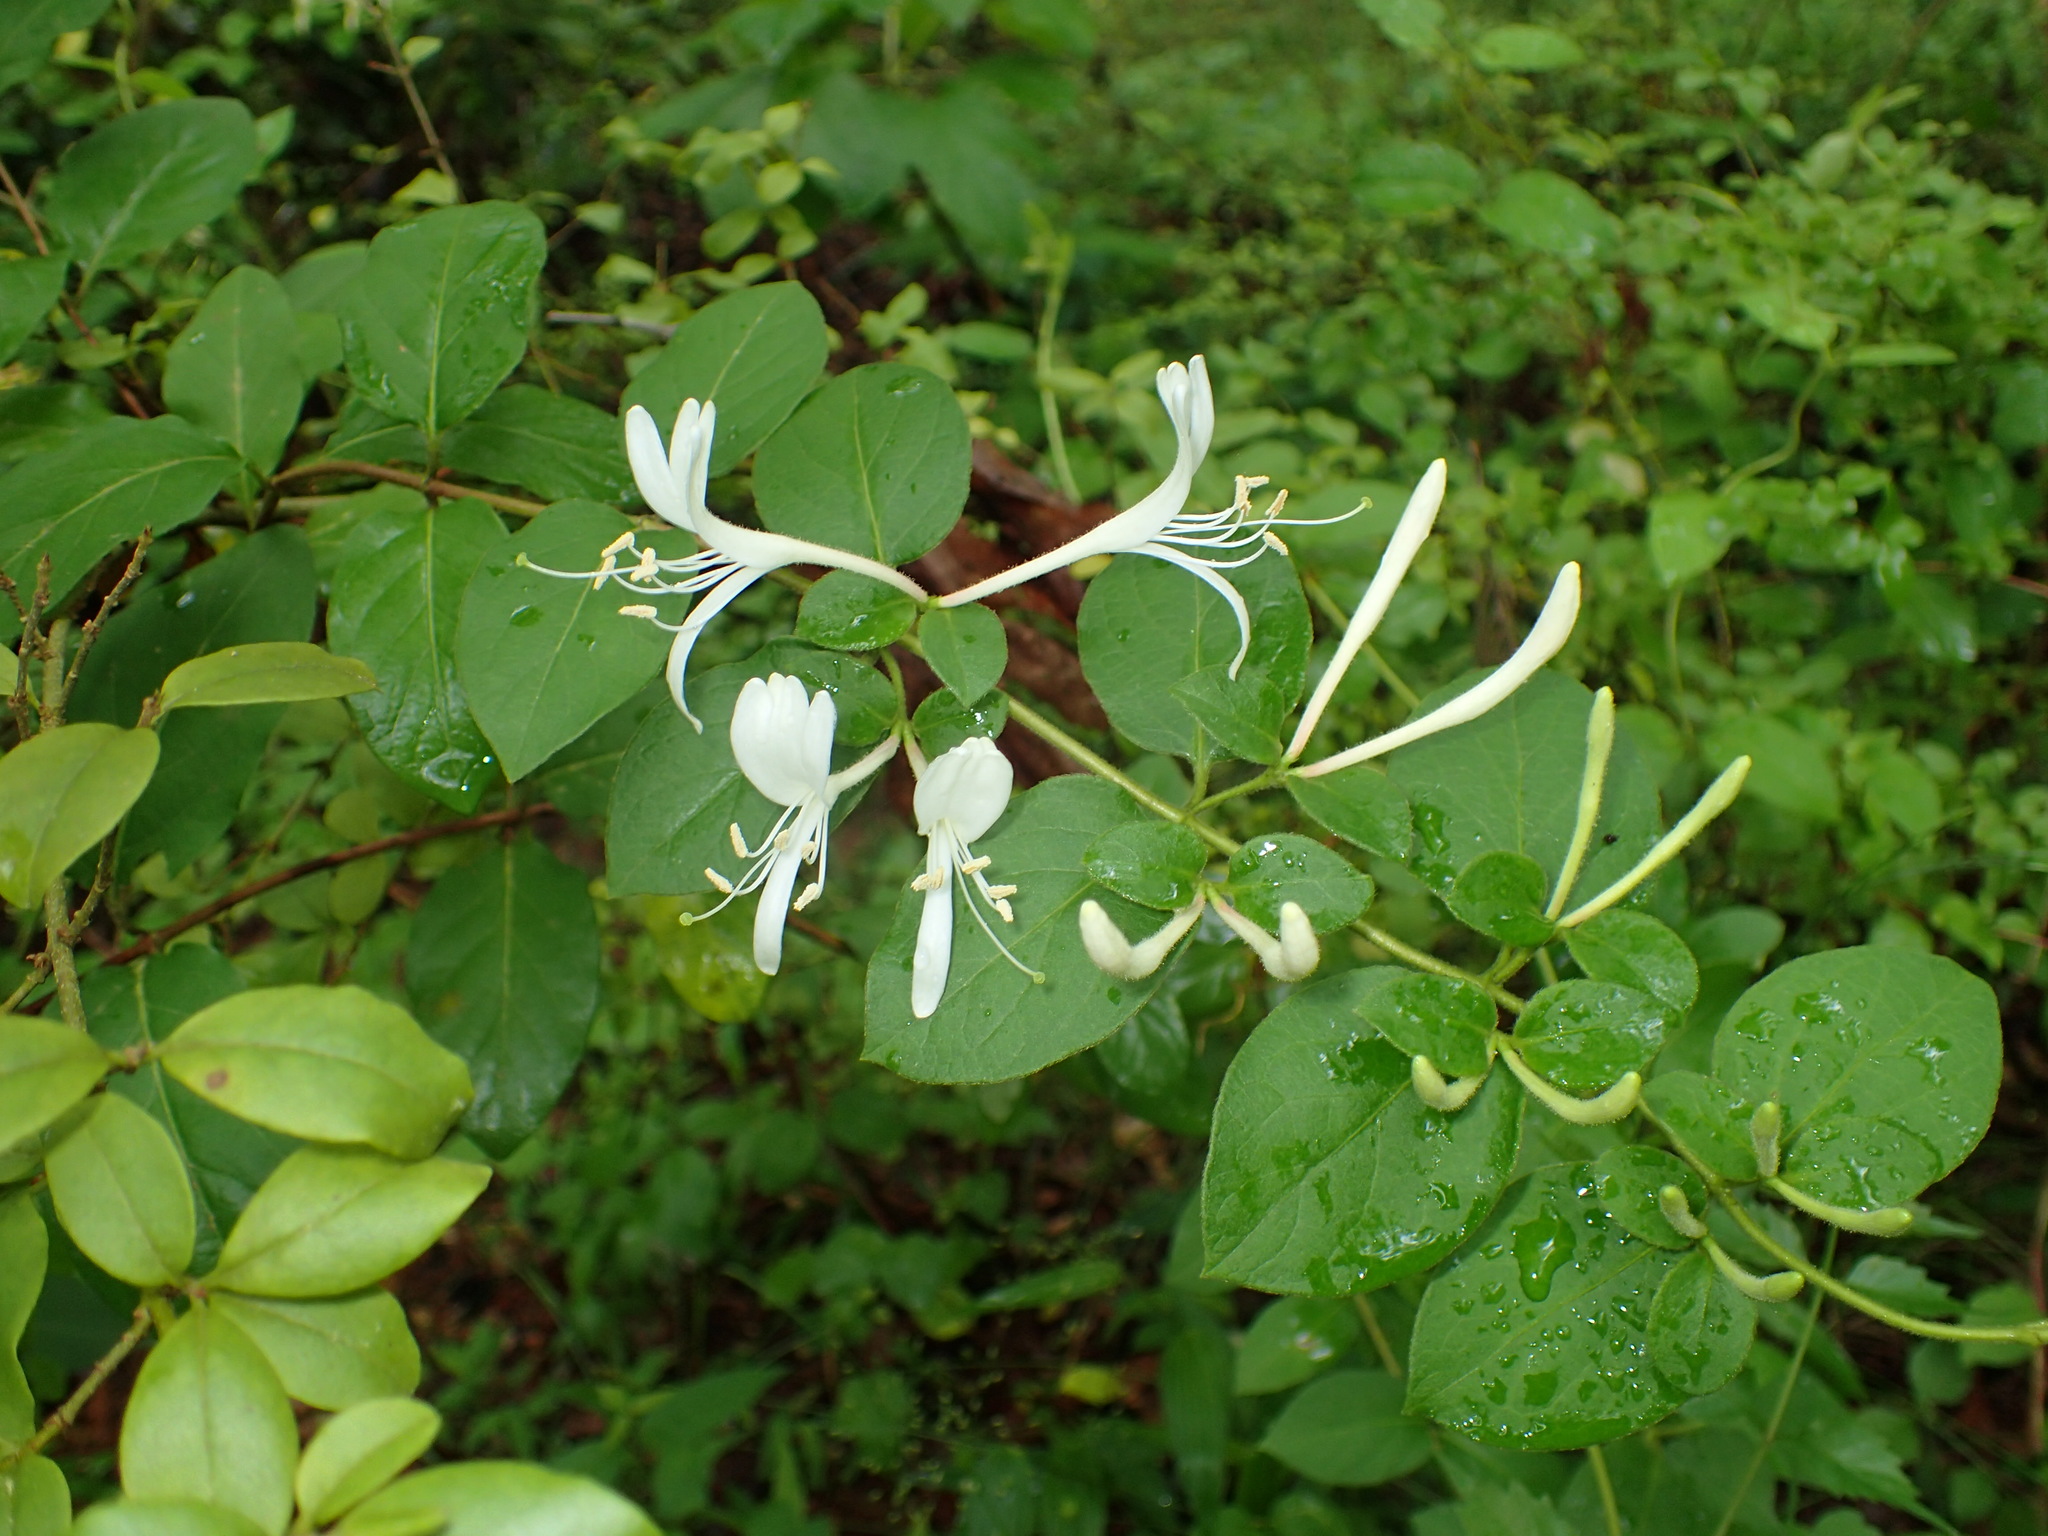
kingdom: Plantae
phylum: Tracheophyta
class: Magnoliopsida
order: Dipsacales
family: Caprifoliaceae
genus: Lonicera
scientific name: Lonicera japonica
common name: Japanese honeysuckle
